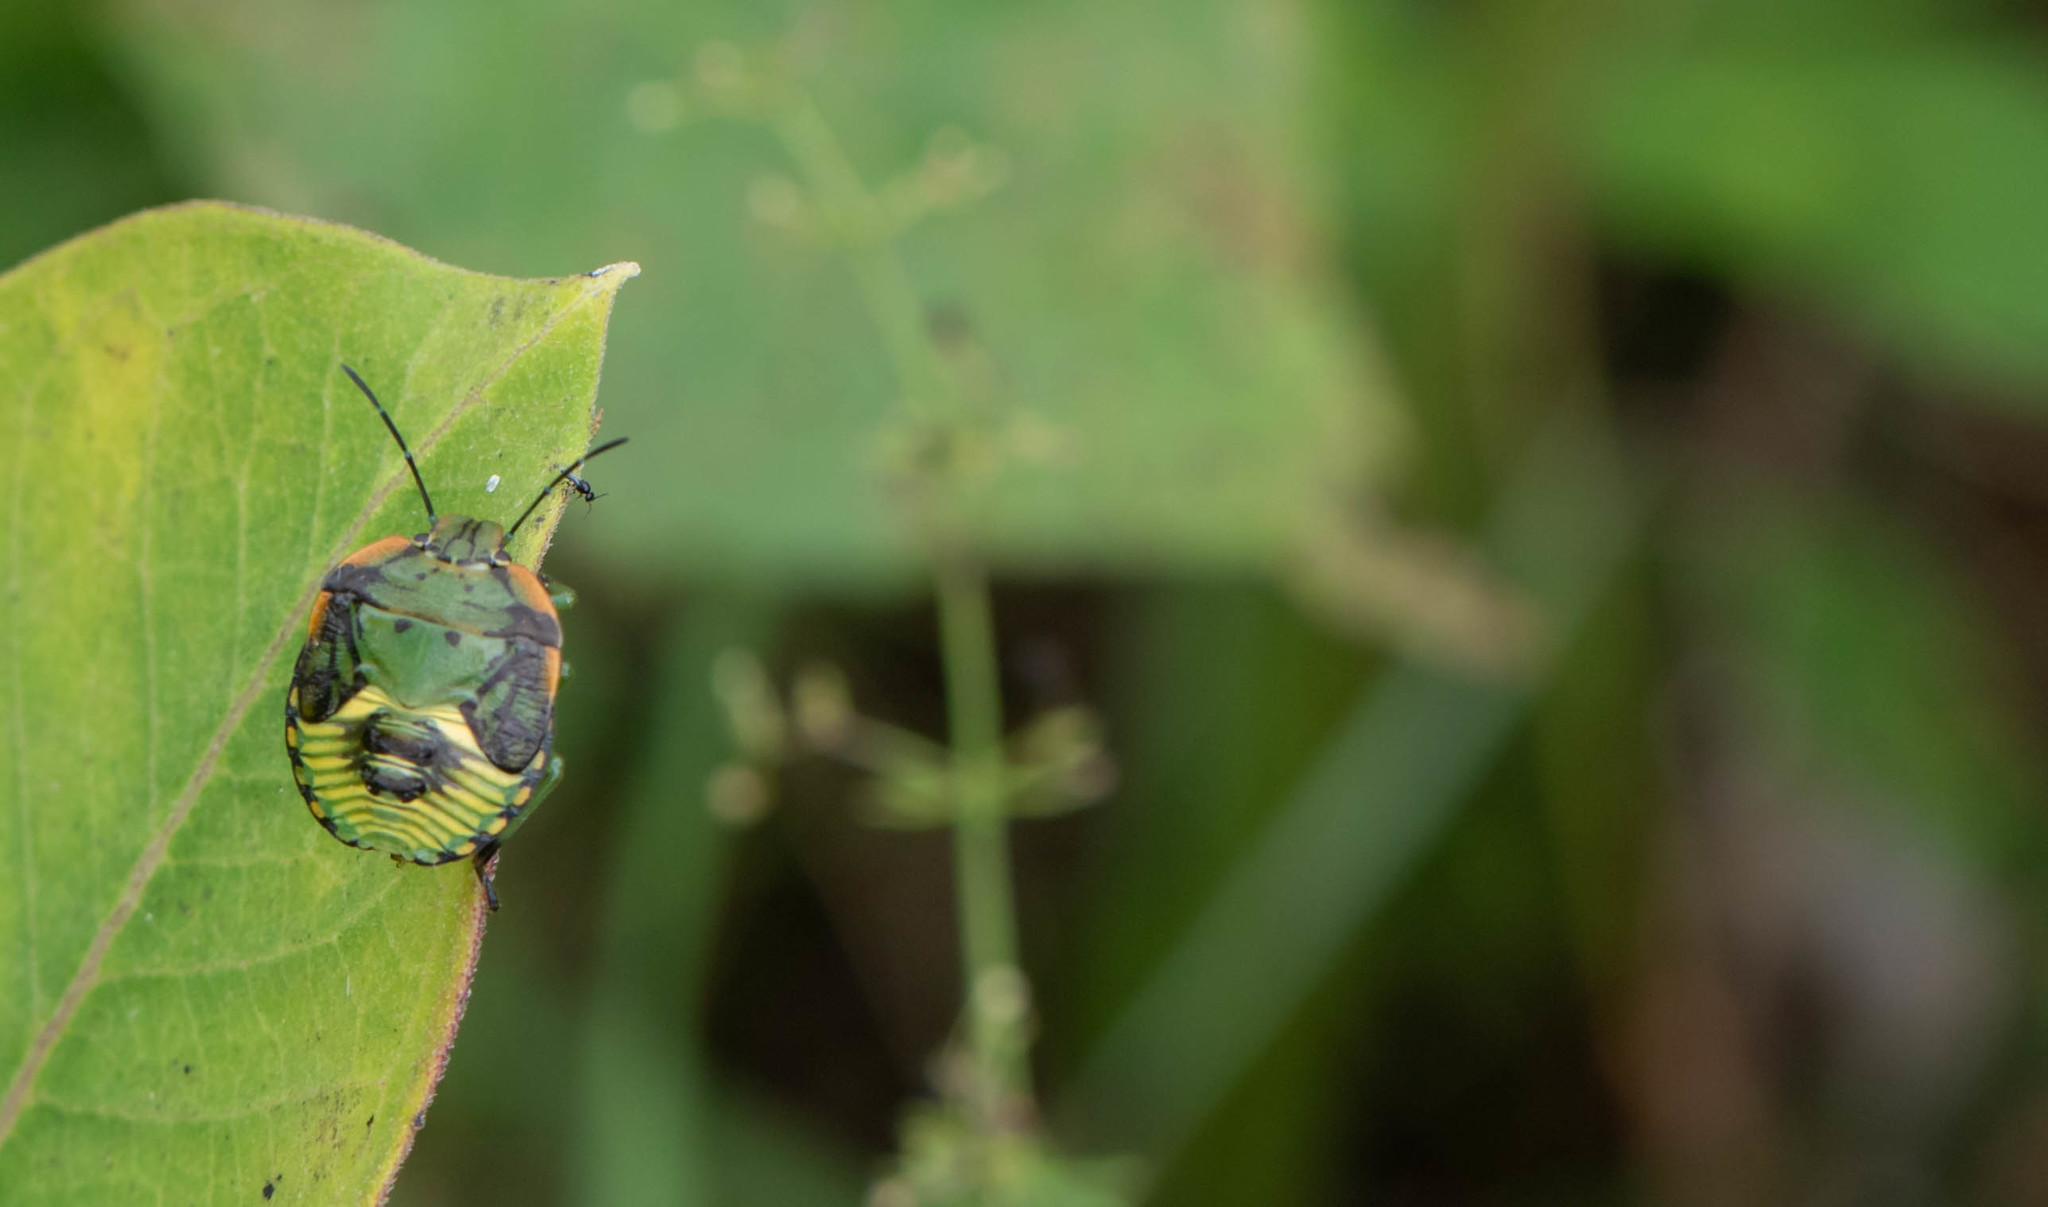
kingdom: Animalia
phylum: Arthropoda
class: Insecta
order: Hemiptera
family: Pentatomidae
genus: Chinavia
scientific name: Chinavia hilaris
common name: Green stink bug
